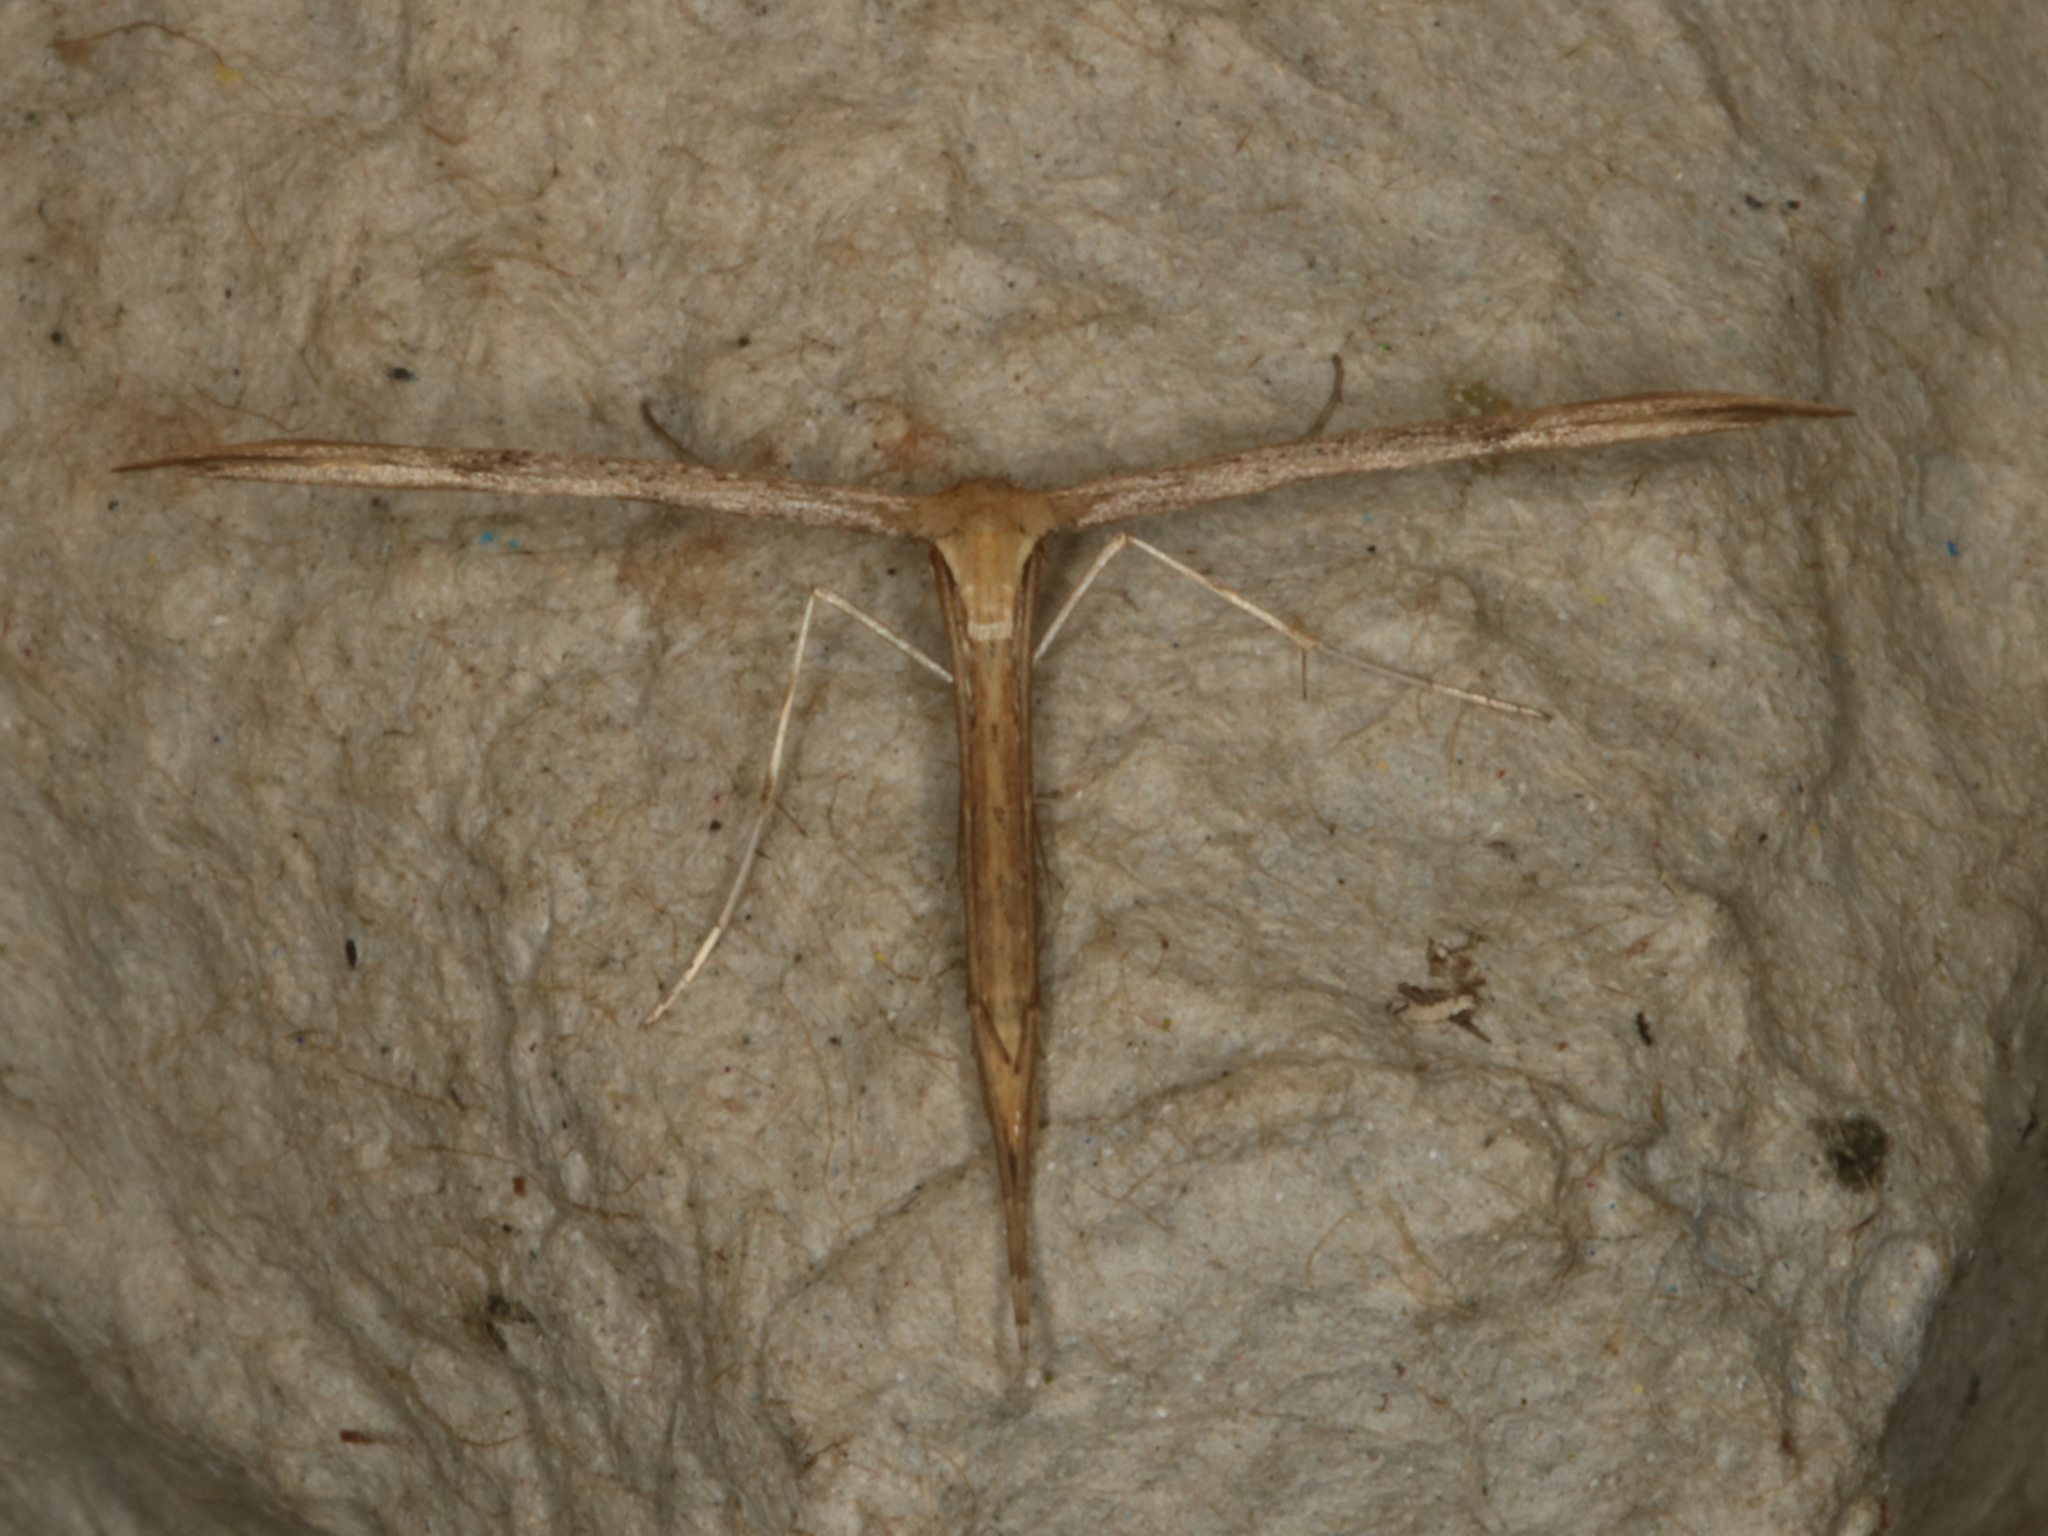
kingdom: Animalia
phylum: Arthropoda
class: Insecta
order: Lepidoptera
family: Pterophoridae
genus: Emmelina
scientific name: Emmelina monodactyla
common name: Common plume
